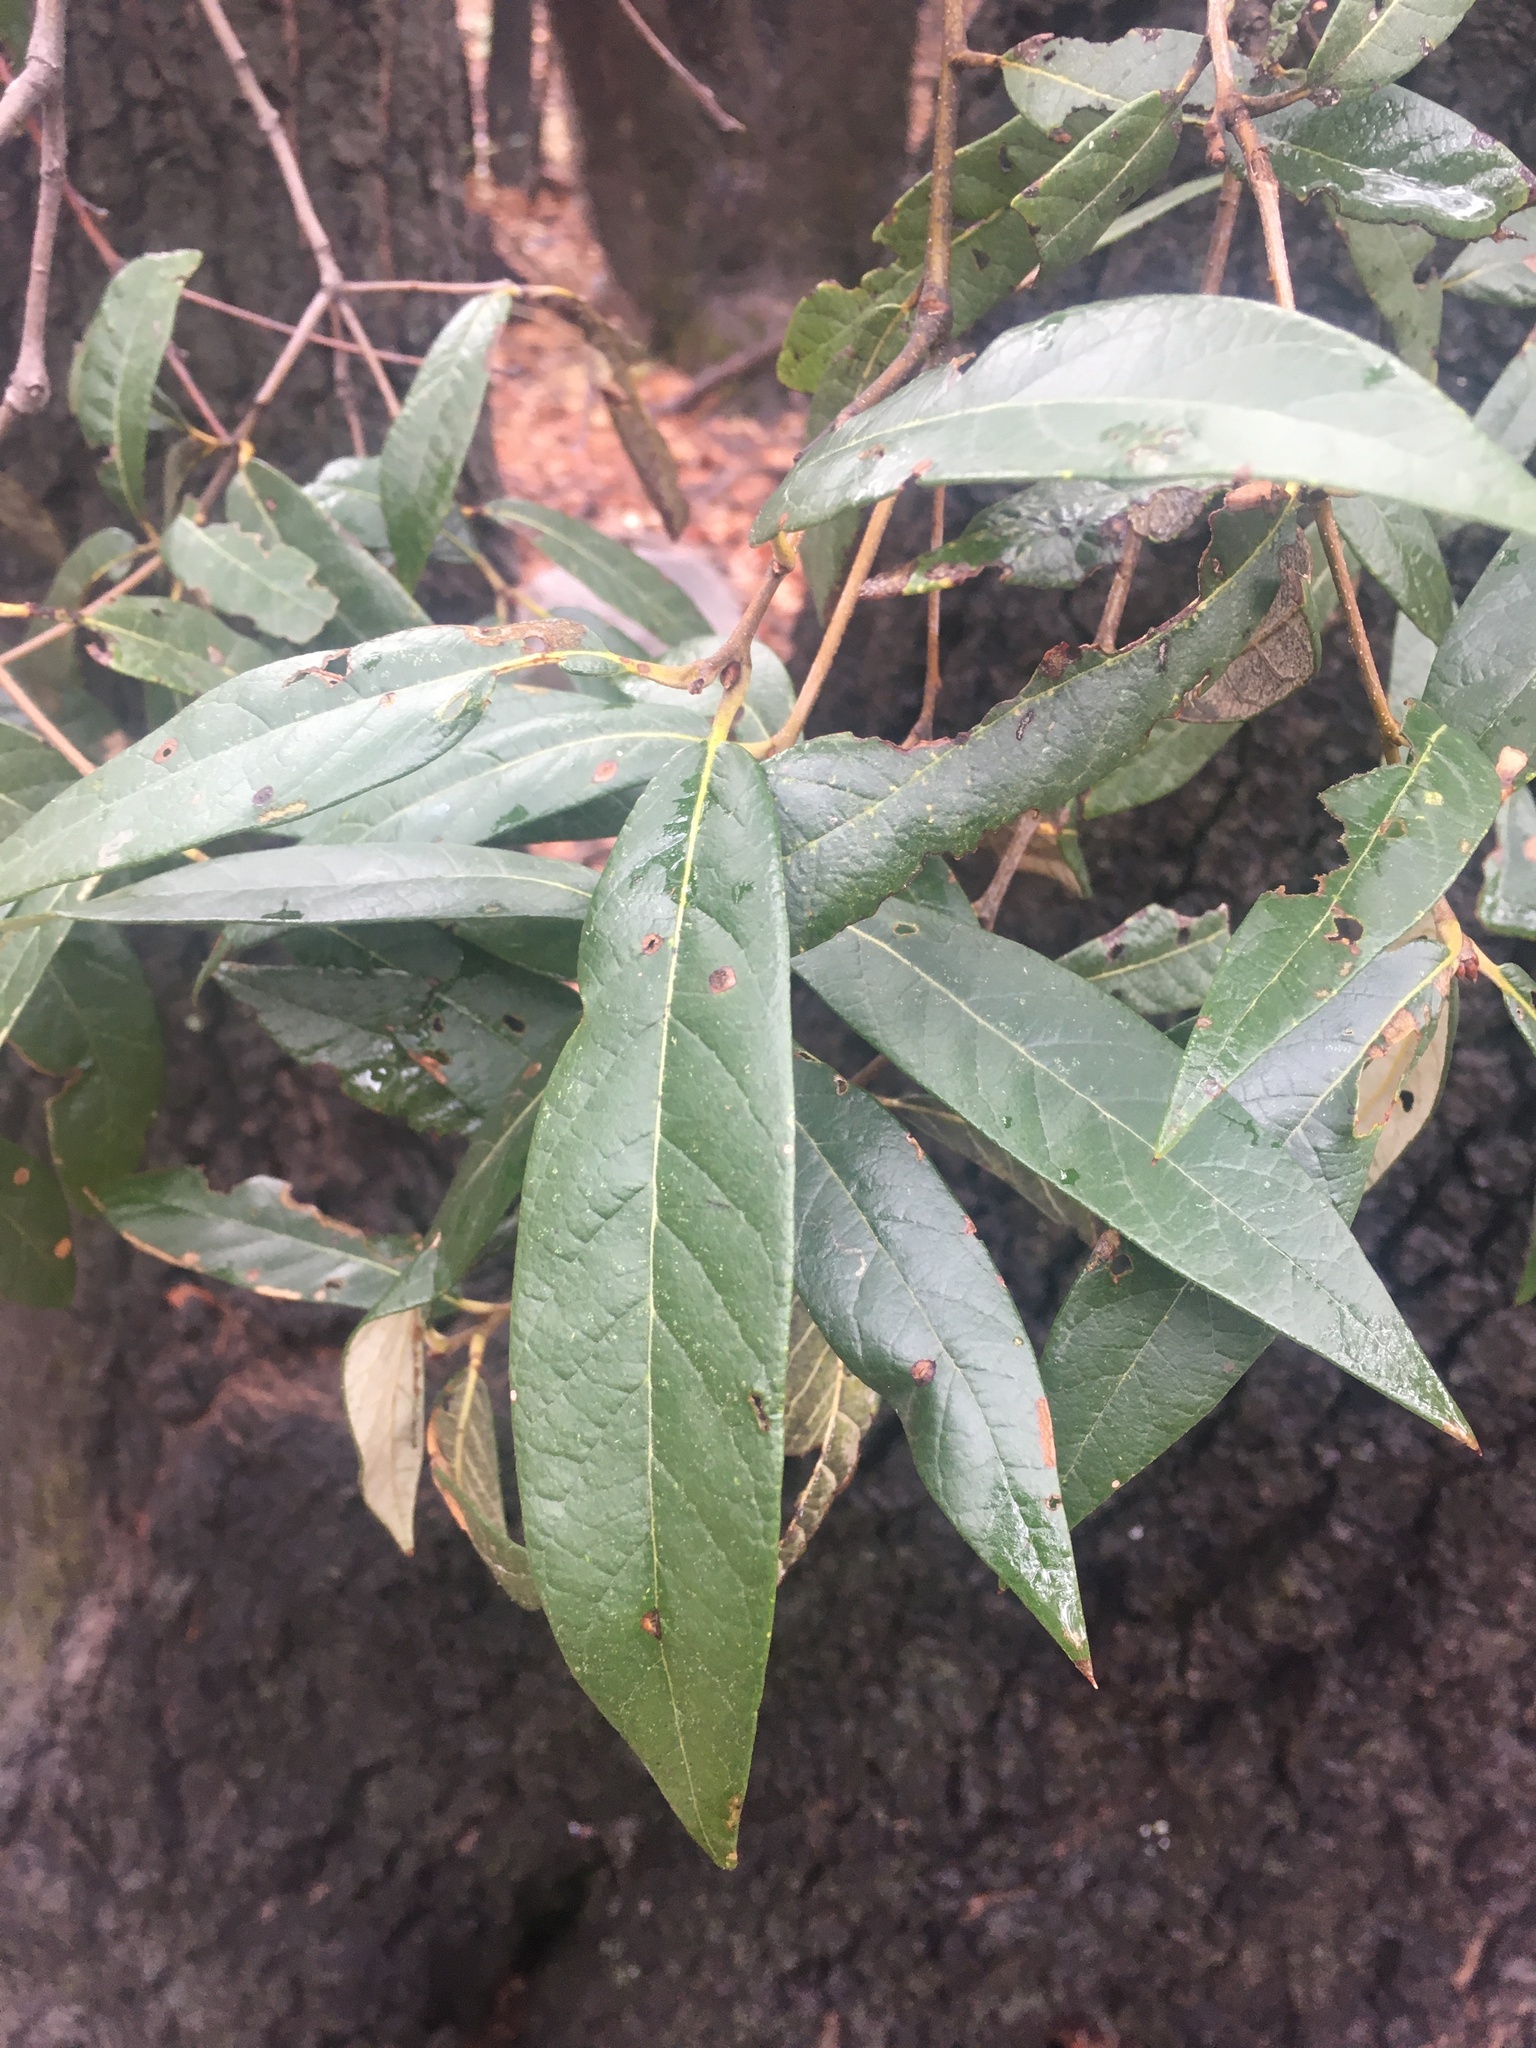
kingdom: Plantae
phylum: Tracheophyta
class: Magnoliopsida
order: Fagales
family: Fagaceae
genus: Quercus
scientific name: Quercus hypoleucoides
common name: Silverleaf oak
